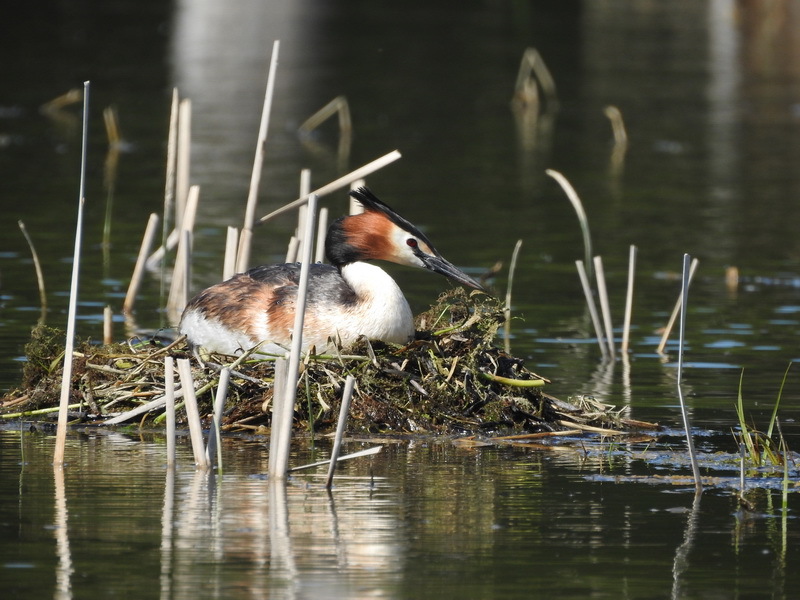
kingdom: Animalia
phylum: Chordata
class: Aves
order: Podicipediformes
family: Podicipedidae
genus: Podiceps
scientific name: Podiceps cristatus
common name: Great crested grebe
